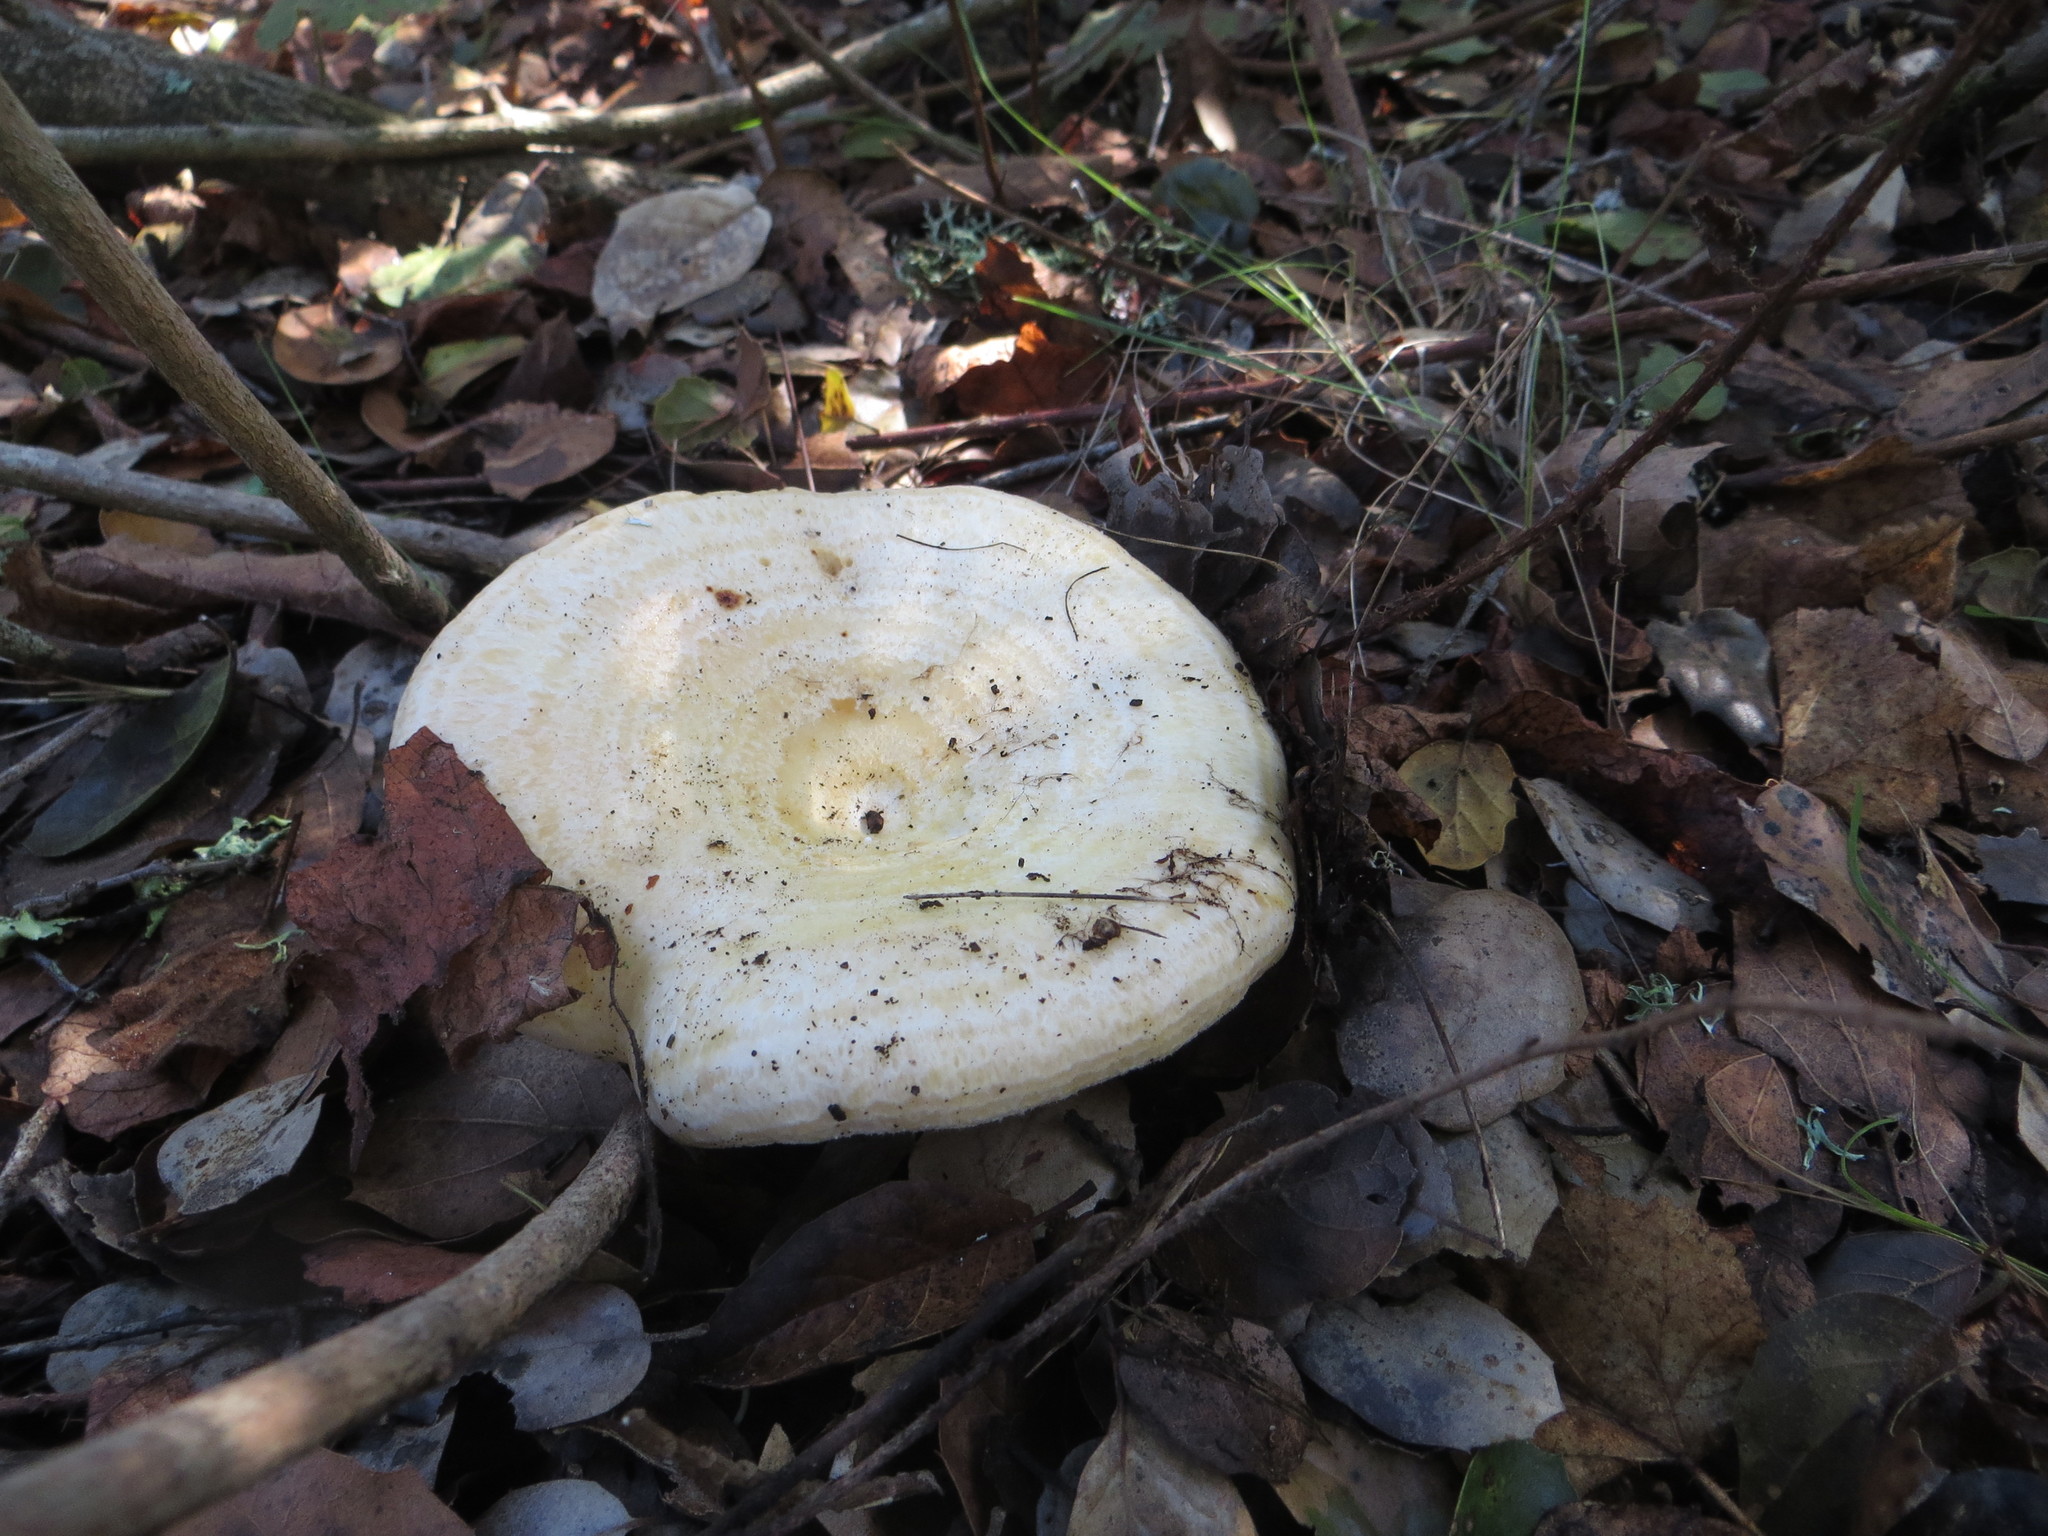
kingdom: Fungi
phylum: Basidiomycota
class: Agaricomycetes
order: Russulales
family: Russulaceae
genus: Lactarius
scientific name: Lactarius alnicola
